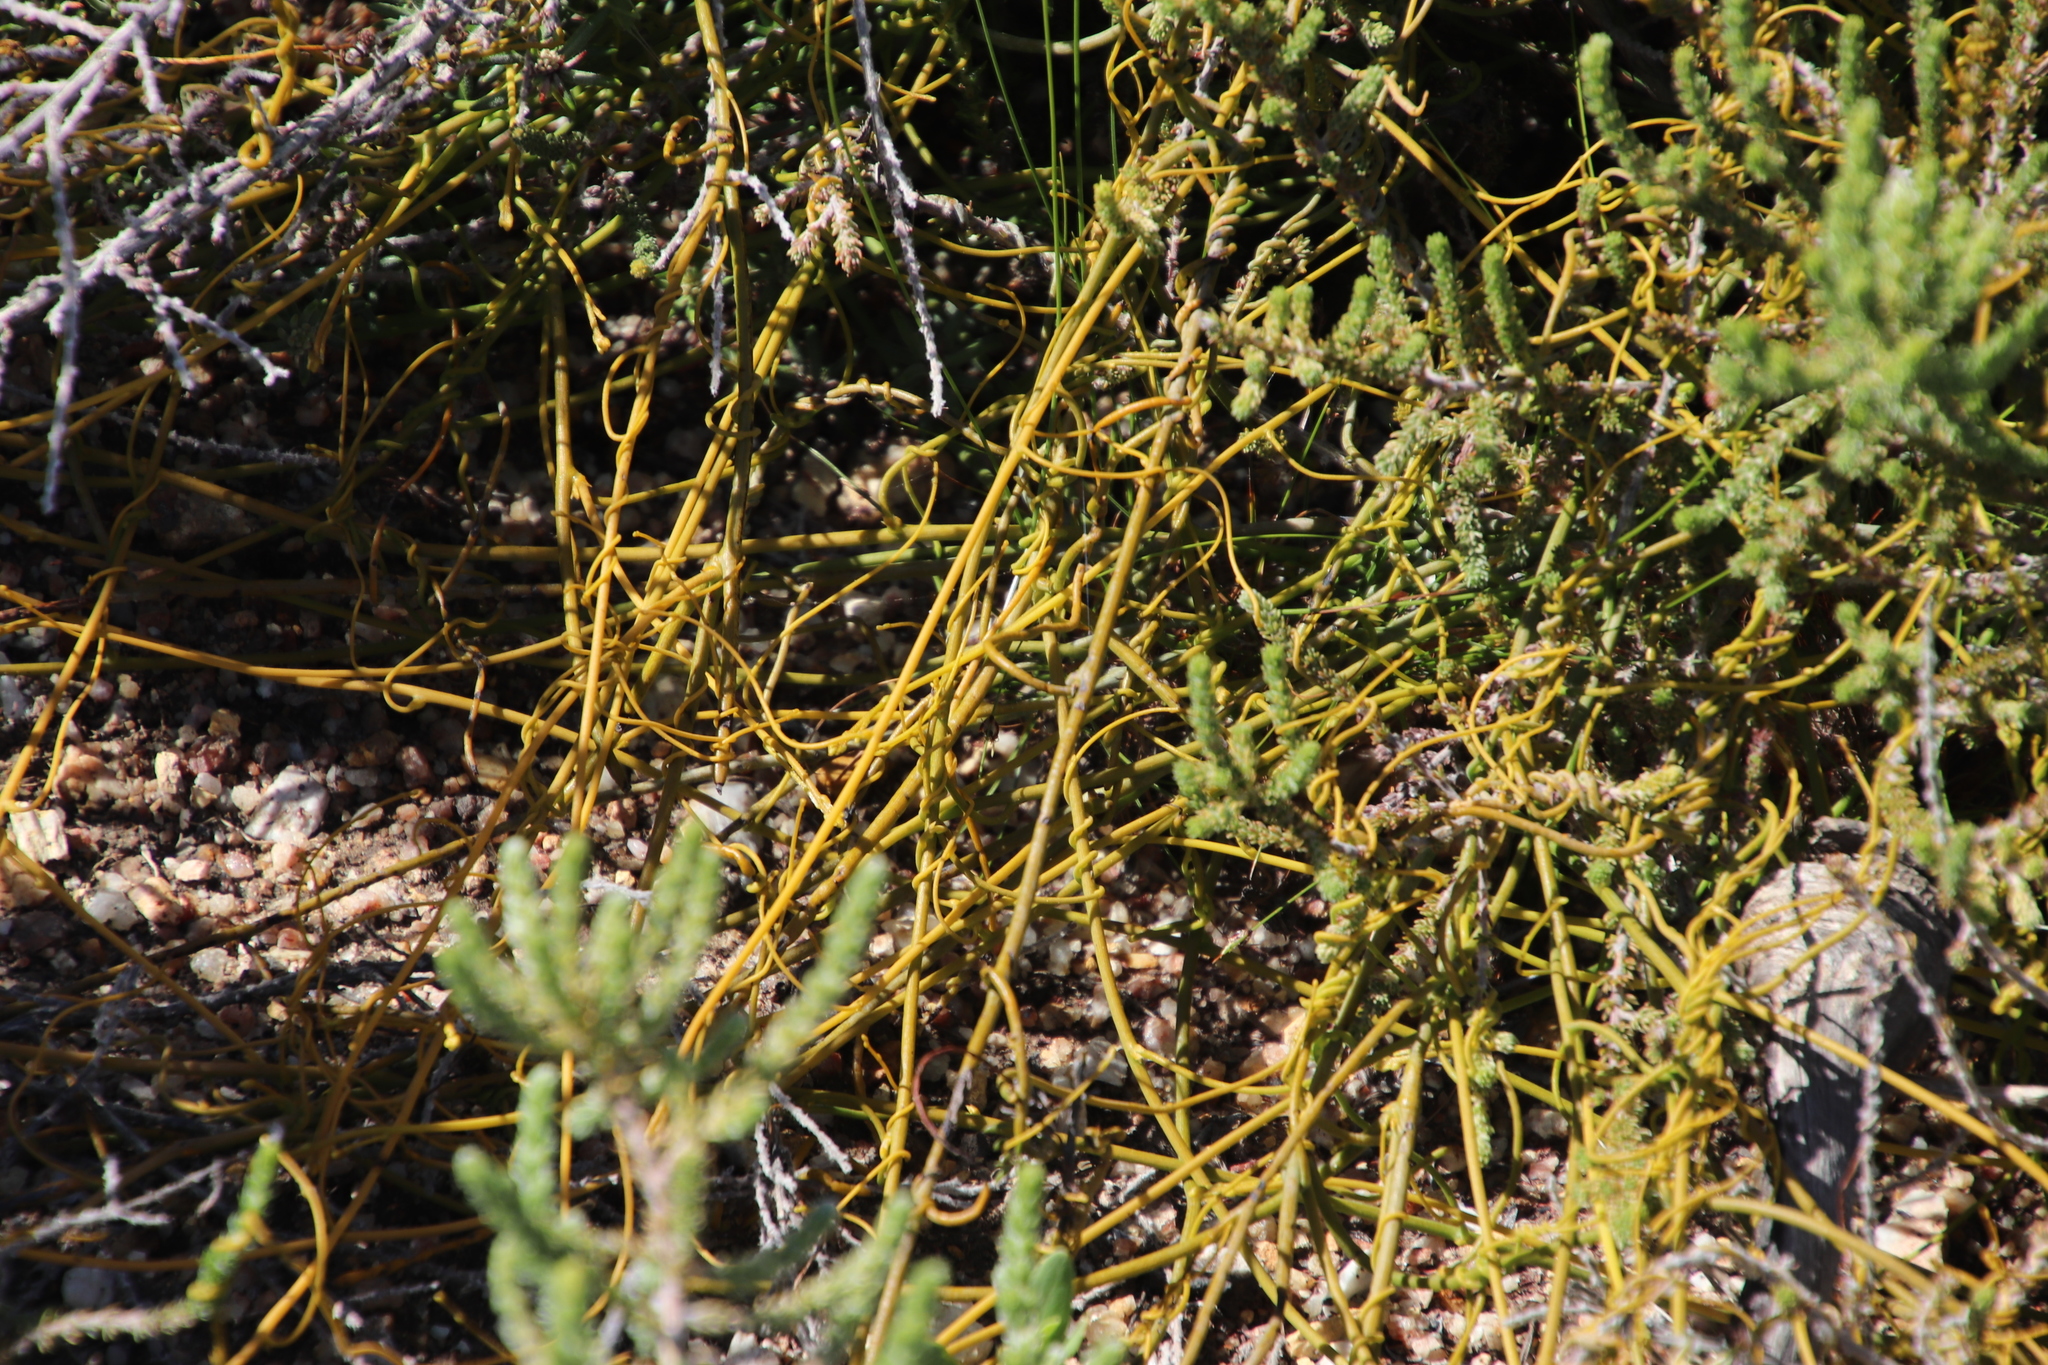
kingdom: Plantae
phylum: Tracheophyta
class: Magnoliopsida
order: Laurales
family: Lauraceae
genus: Cassytha
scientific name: Cassytha ciliolata
